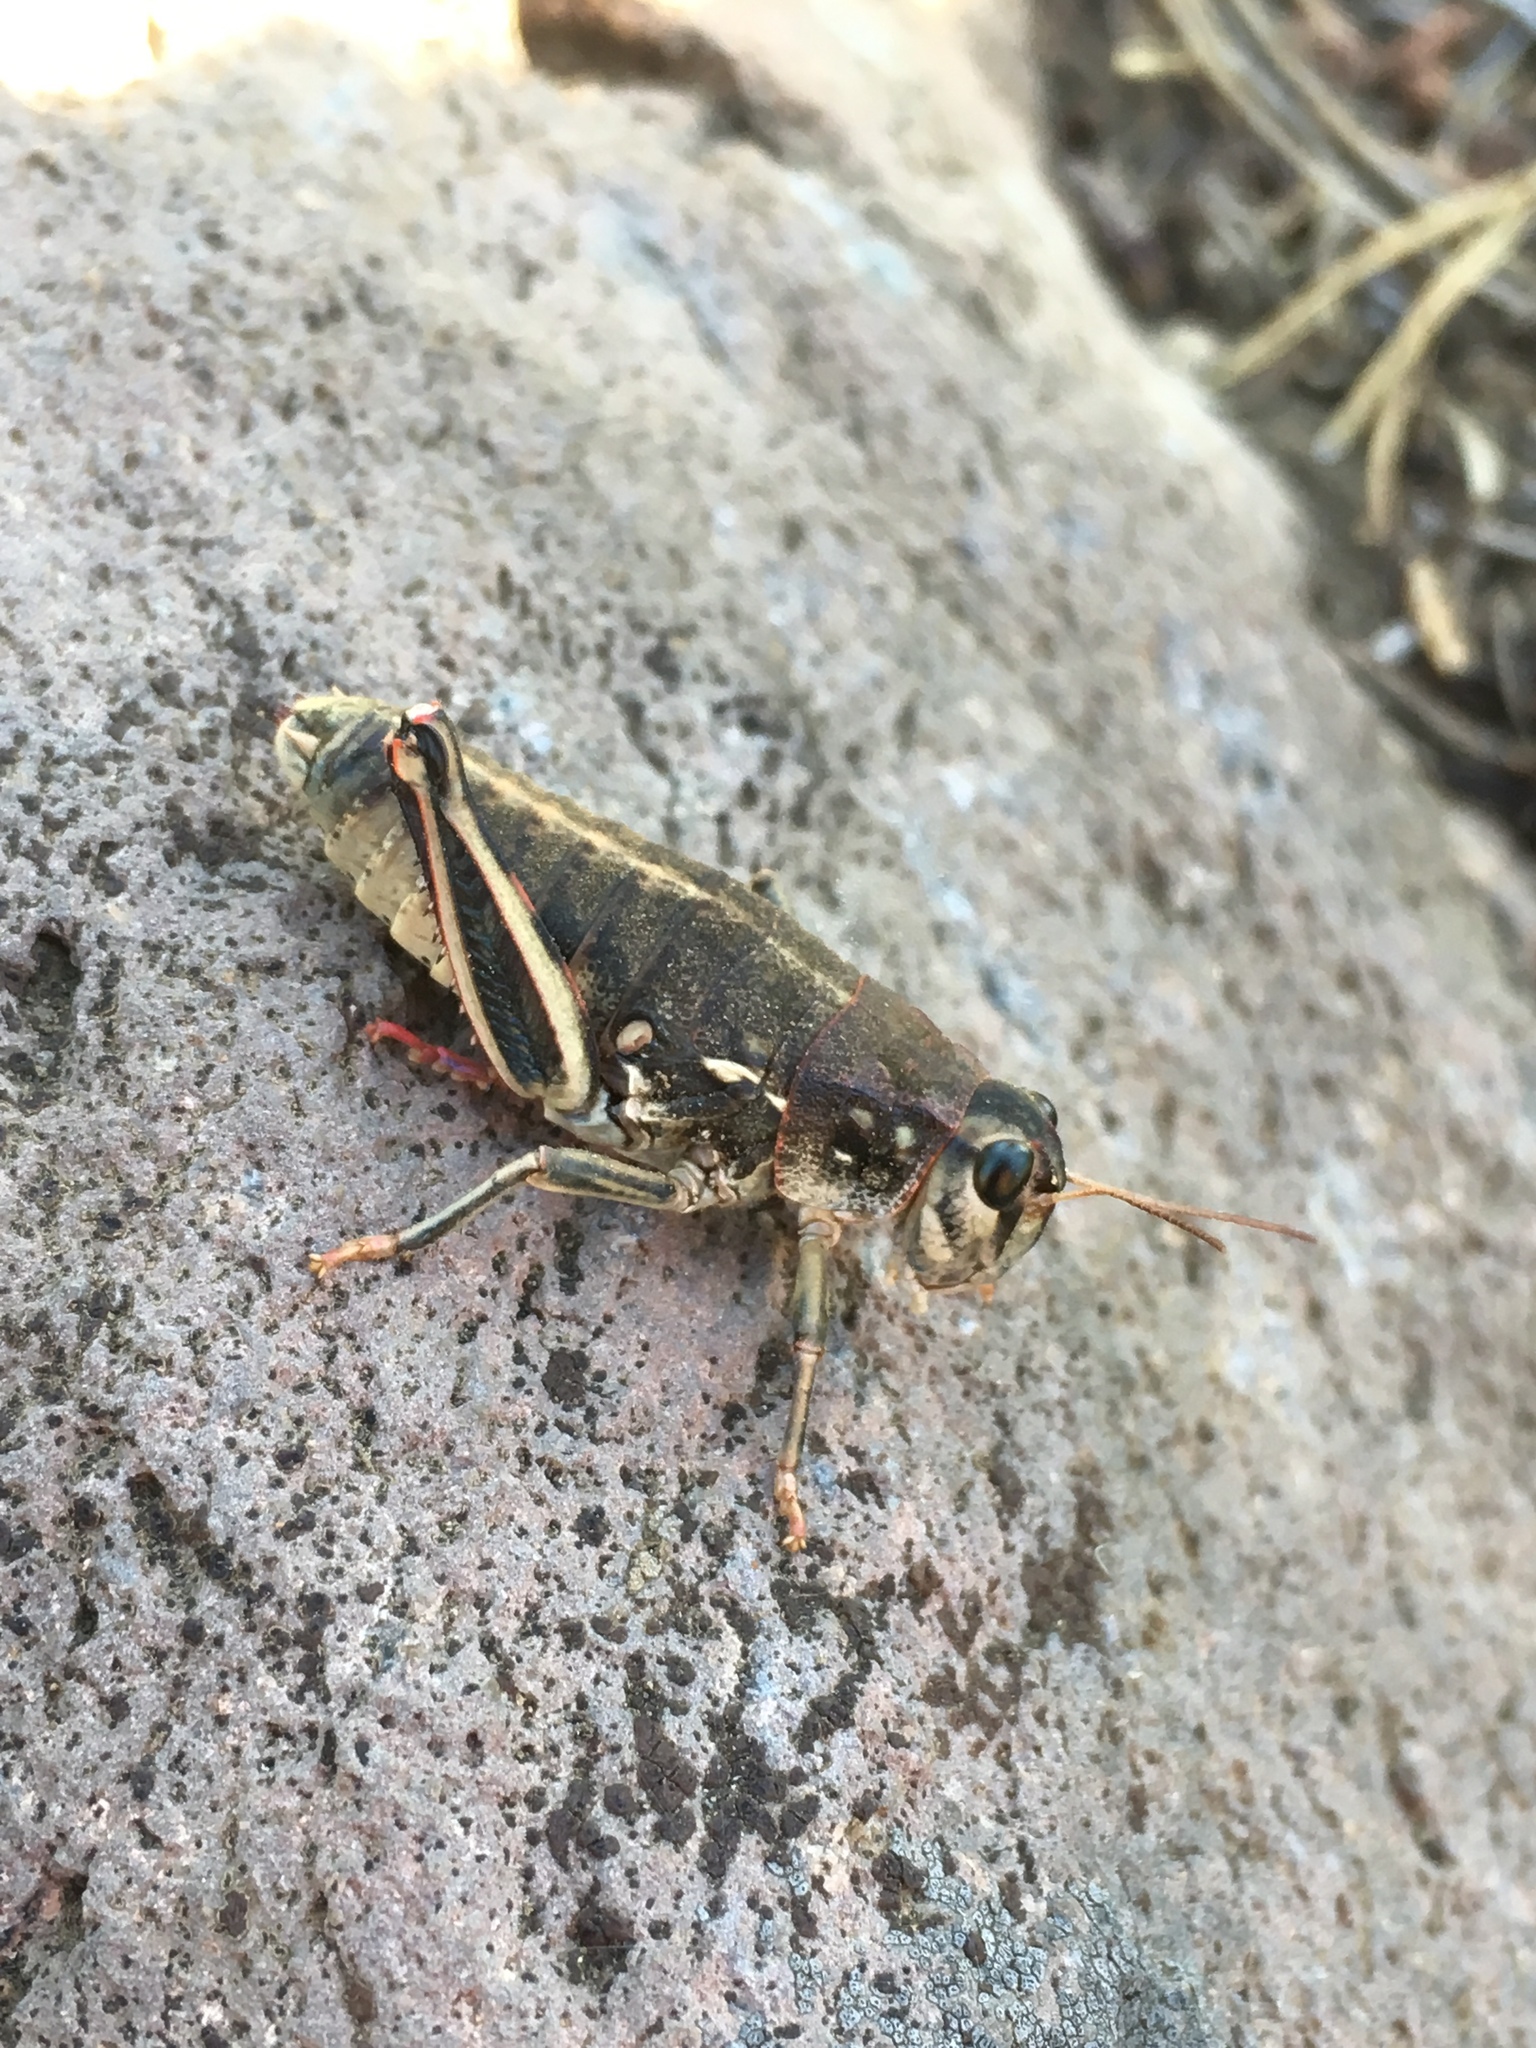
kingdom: Animalia
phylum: Arthropoda
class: Insecta
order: Orthoptera
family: Acrididae
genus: Bradynotes
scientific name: Bradynotes obesa
